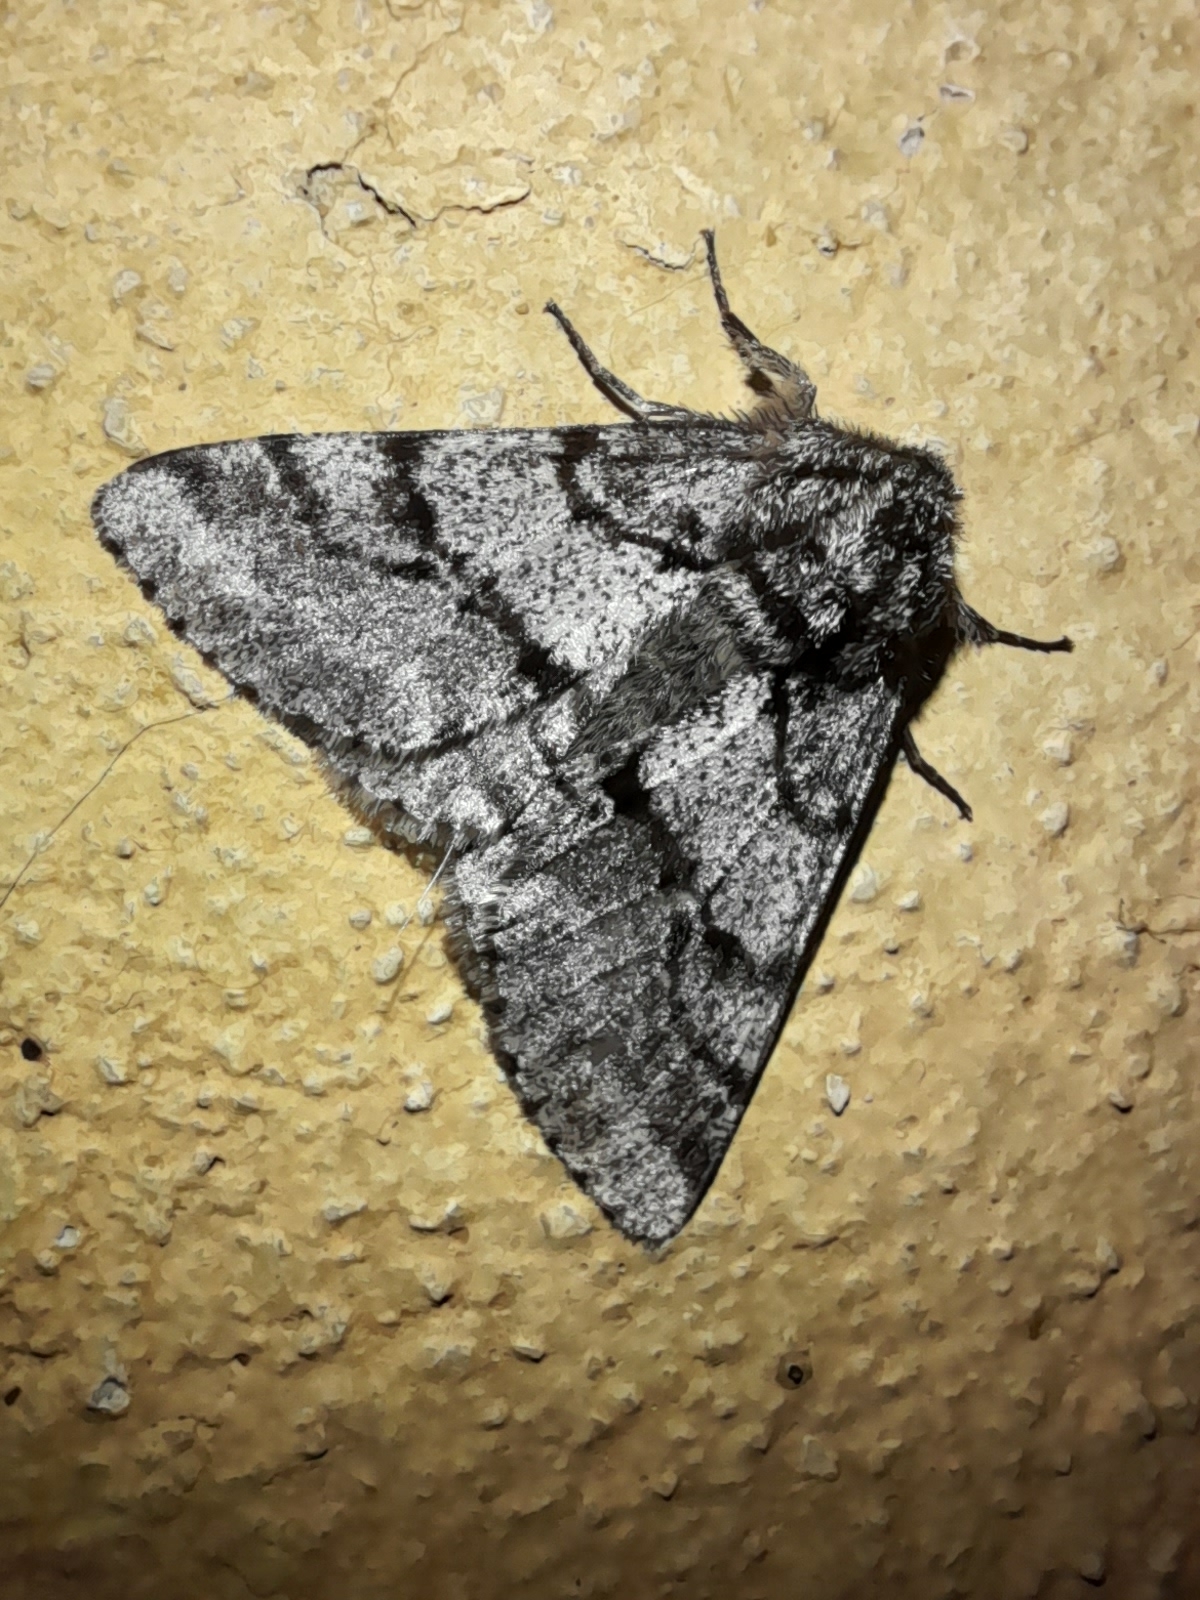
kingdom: Animalia
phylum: Arthropoda
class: Insecta
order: Lepidoptera
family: Geometridae
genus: Lycia
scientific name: Lycia hirtaria
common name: Brindled beauty
